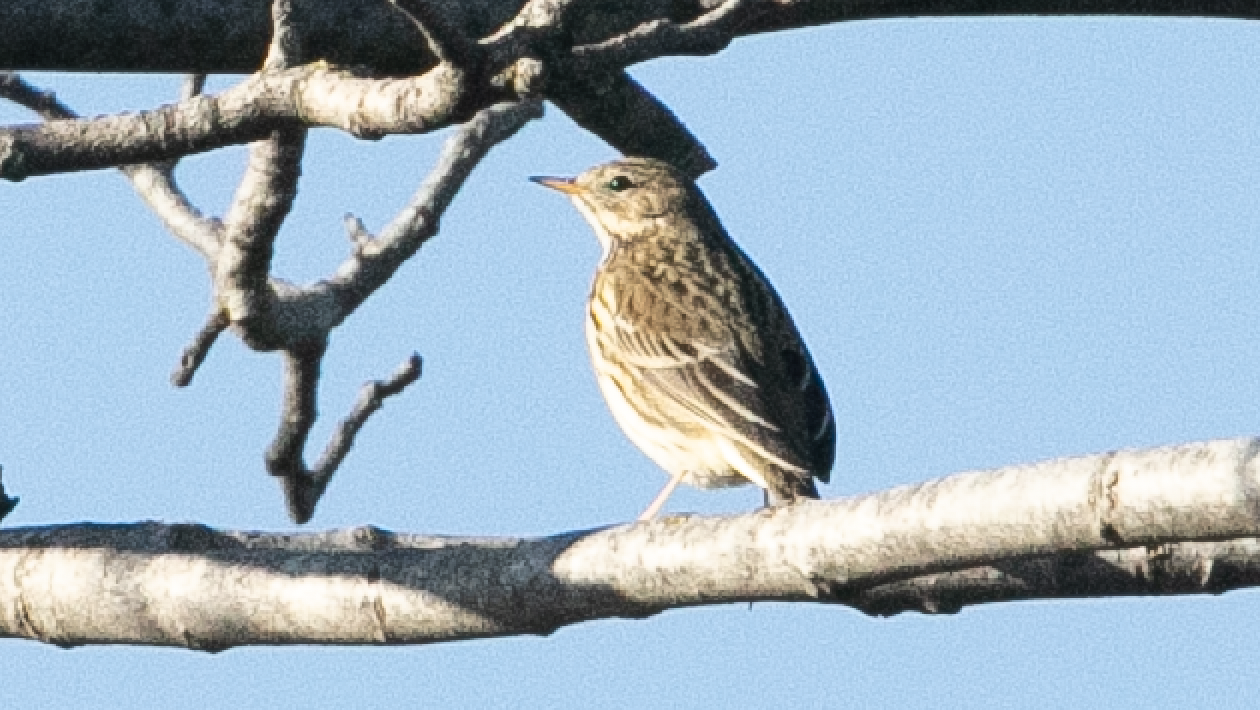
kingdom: Animalia
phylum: Chordata
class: Aves
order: Passeriformes
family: Motacillidae
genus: Anthus
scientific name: Anthus pratensis
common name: Meadow pipit
